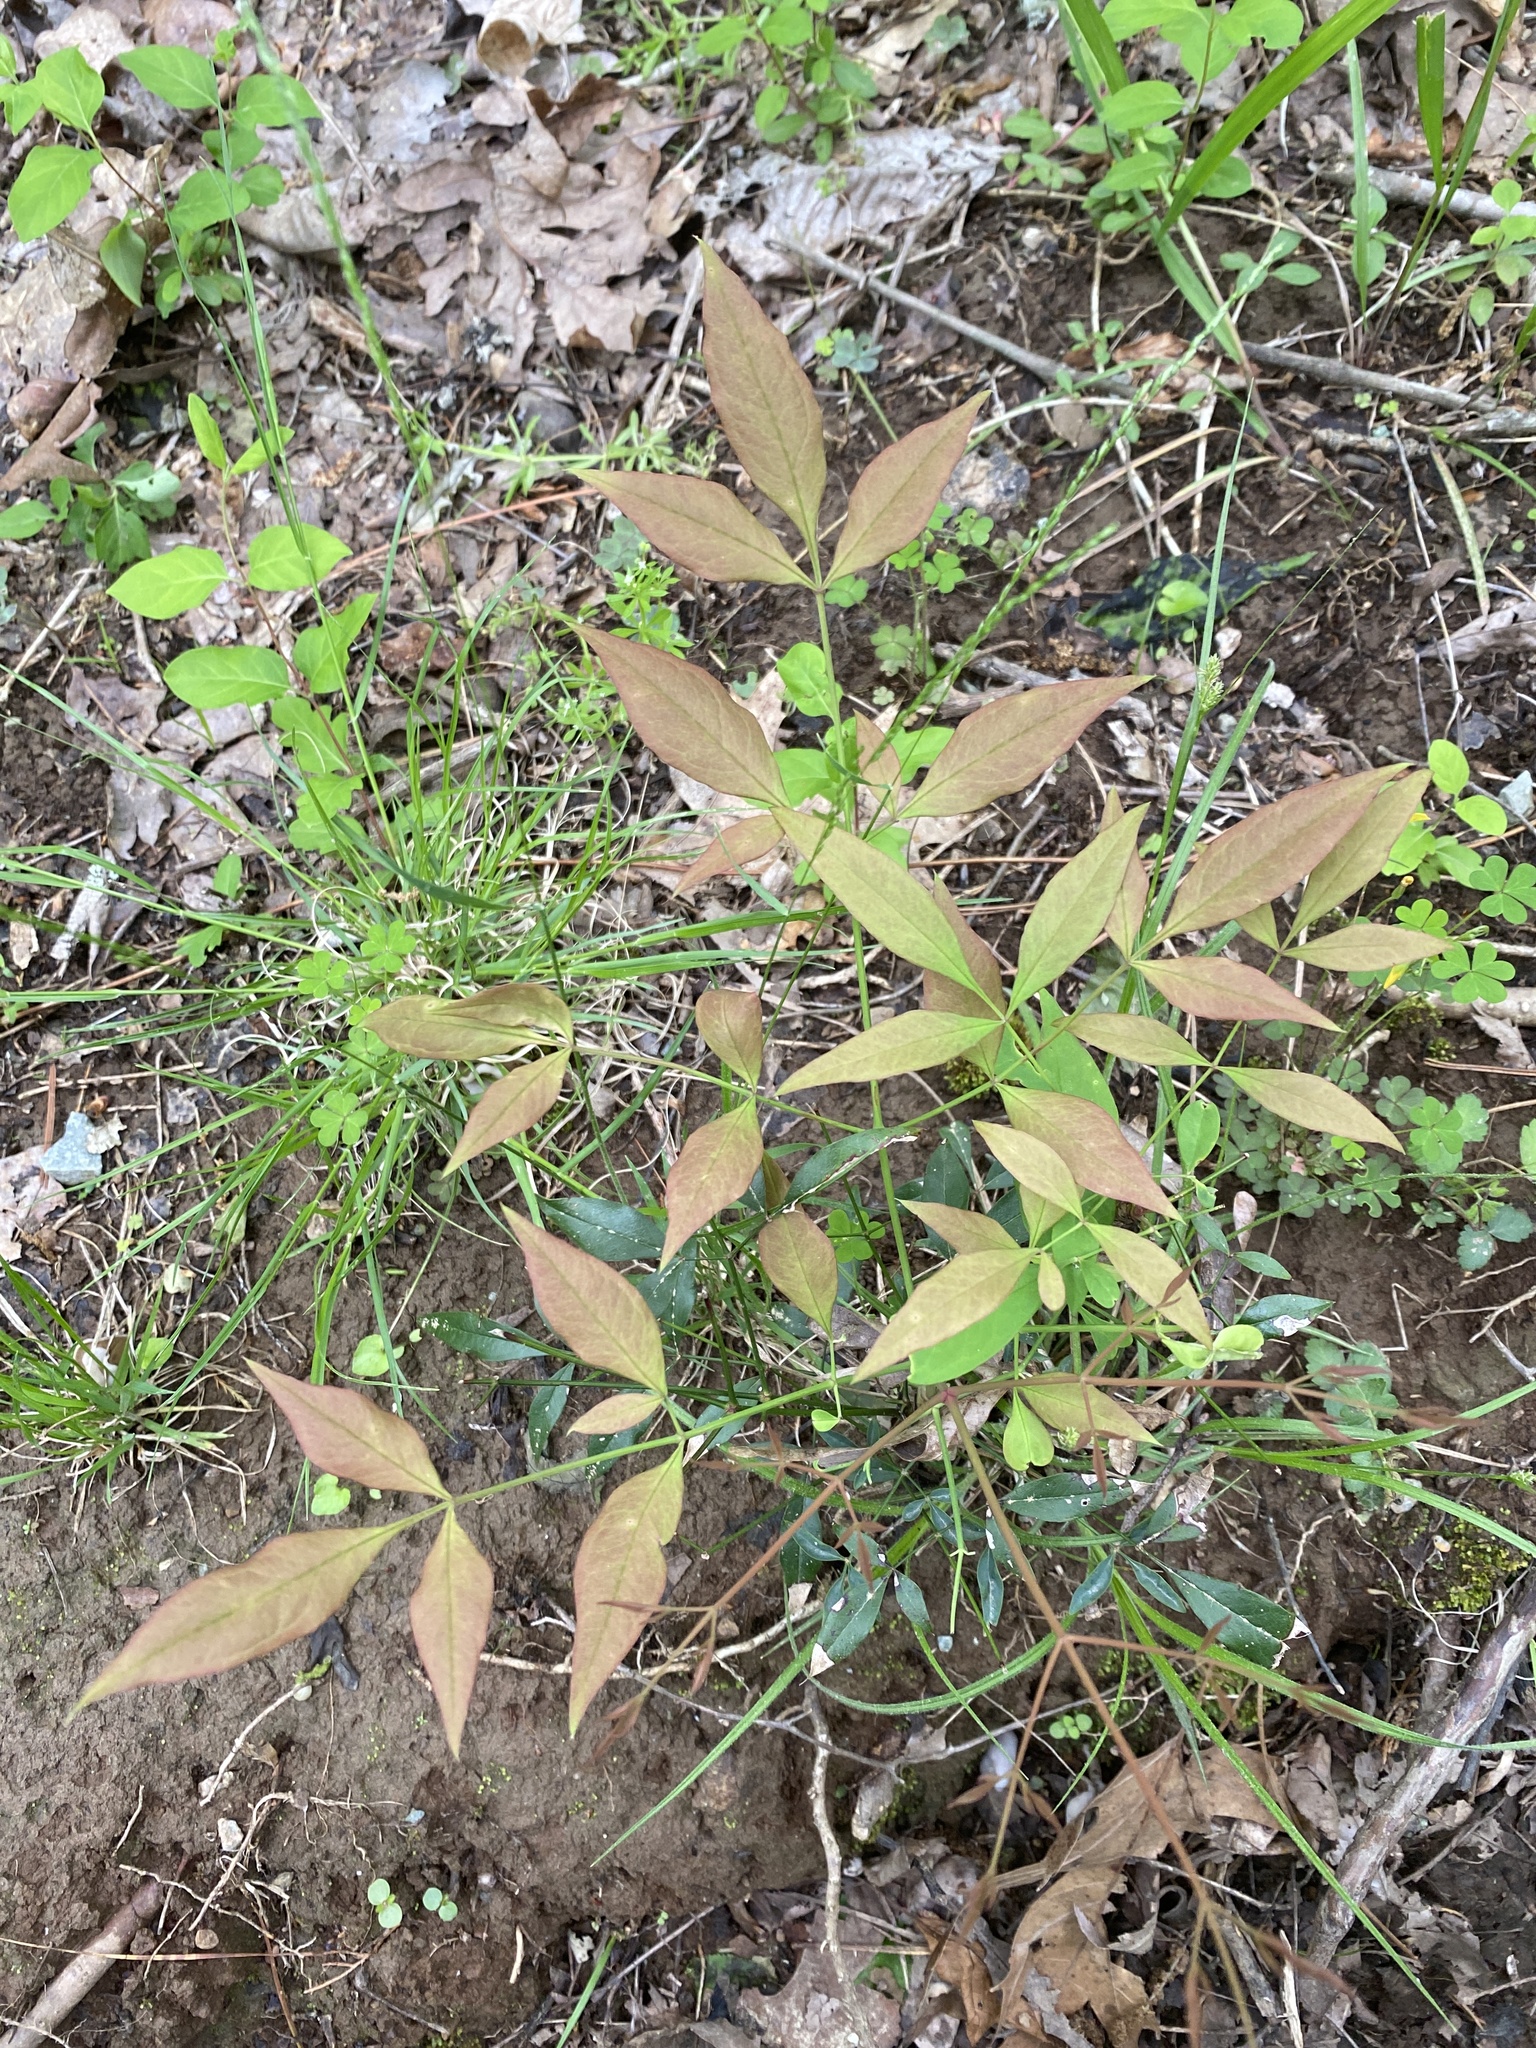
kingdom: Plantae
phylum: Tracheophyta
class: Magnoliopsida
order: Ranunculales
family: Berberidaceae
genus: Nandina
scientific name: Nandina domestica
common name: Sacred bamboo
